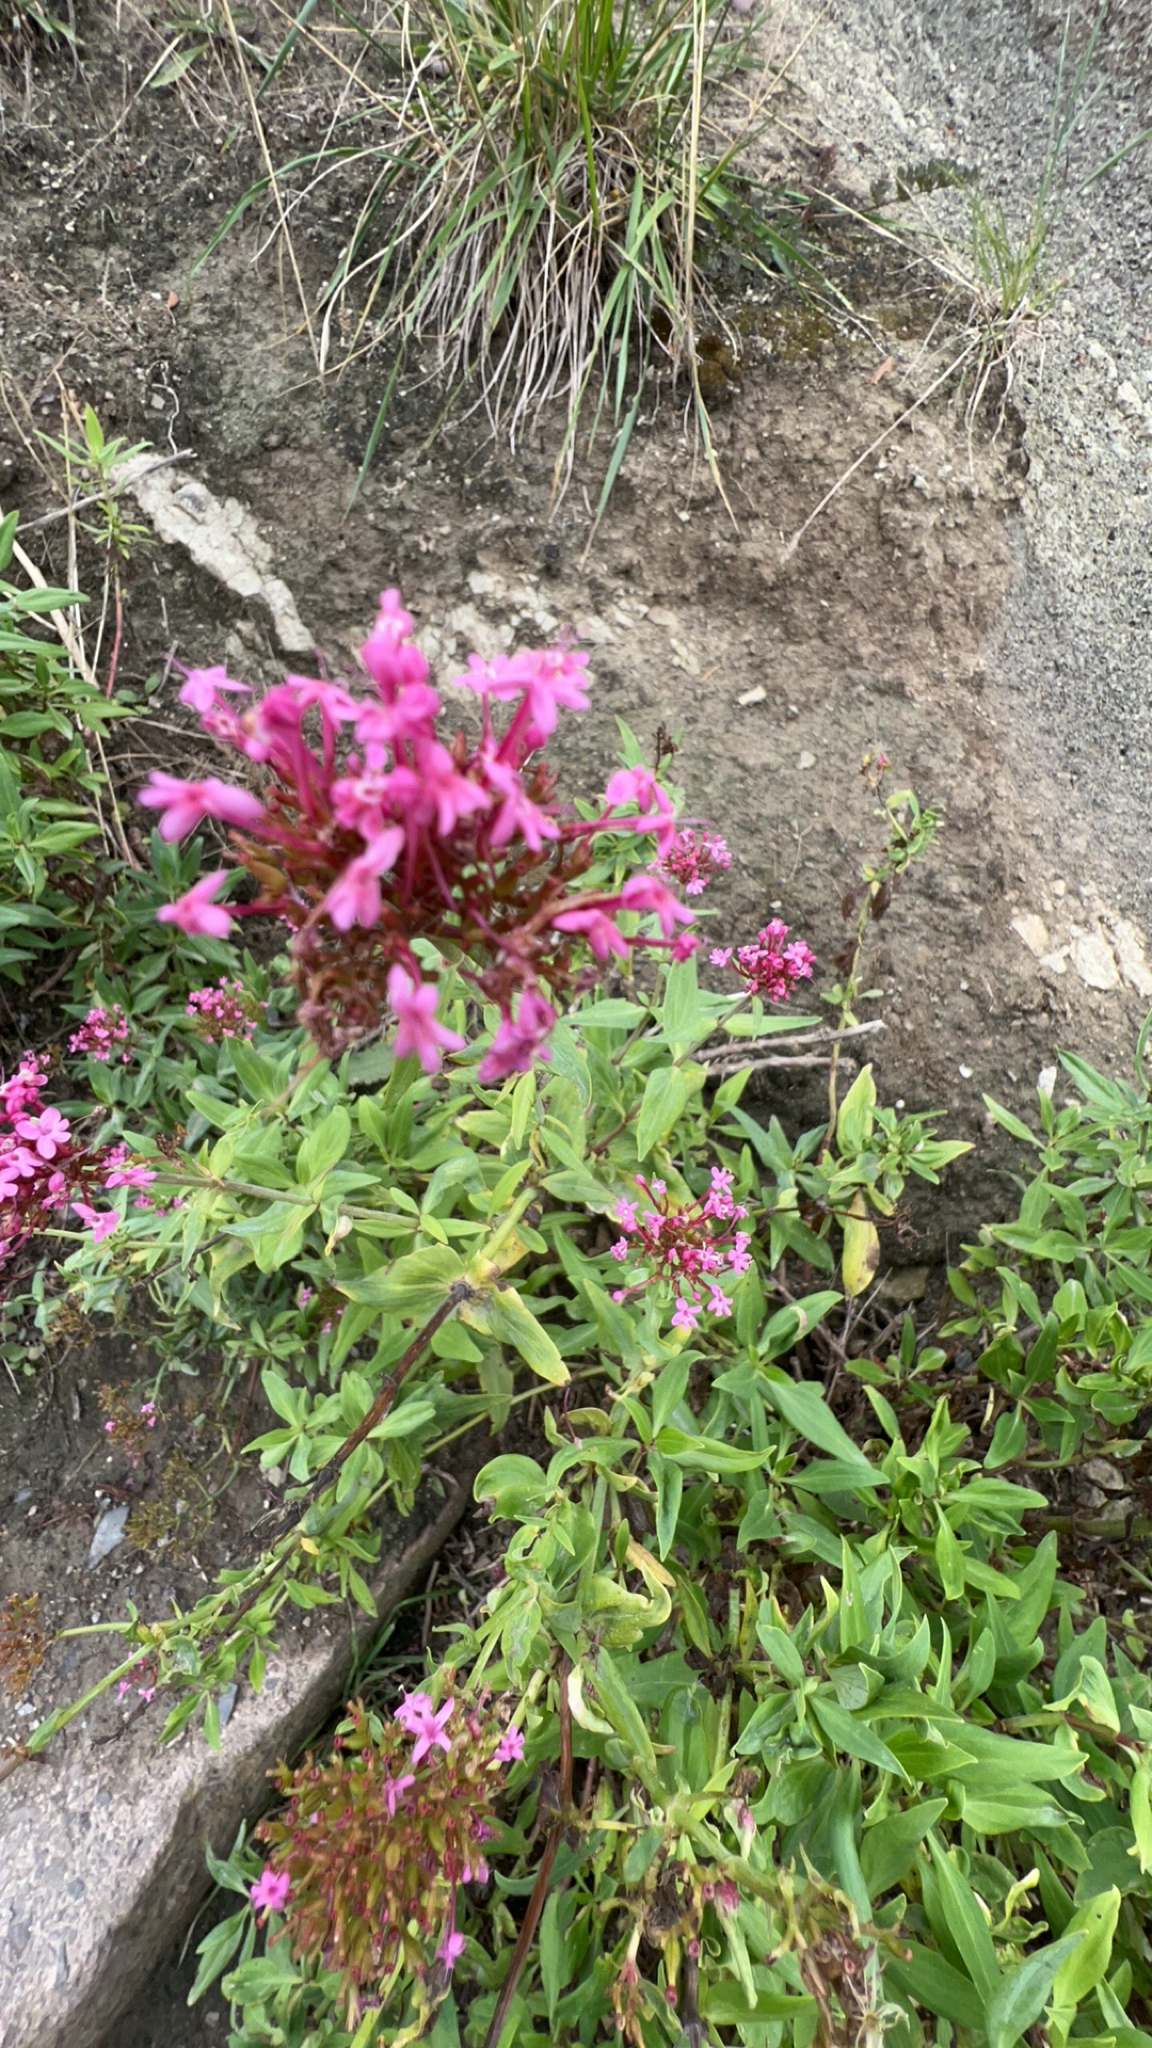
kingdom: Plantae
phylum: Tracheophyta
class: Magnoliopsida
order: Dipsacales
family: Caprifoliaceae
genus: Centranthus
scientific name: Centranthus ruber
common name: Red valerian
